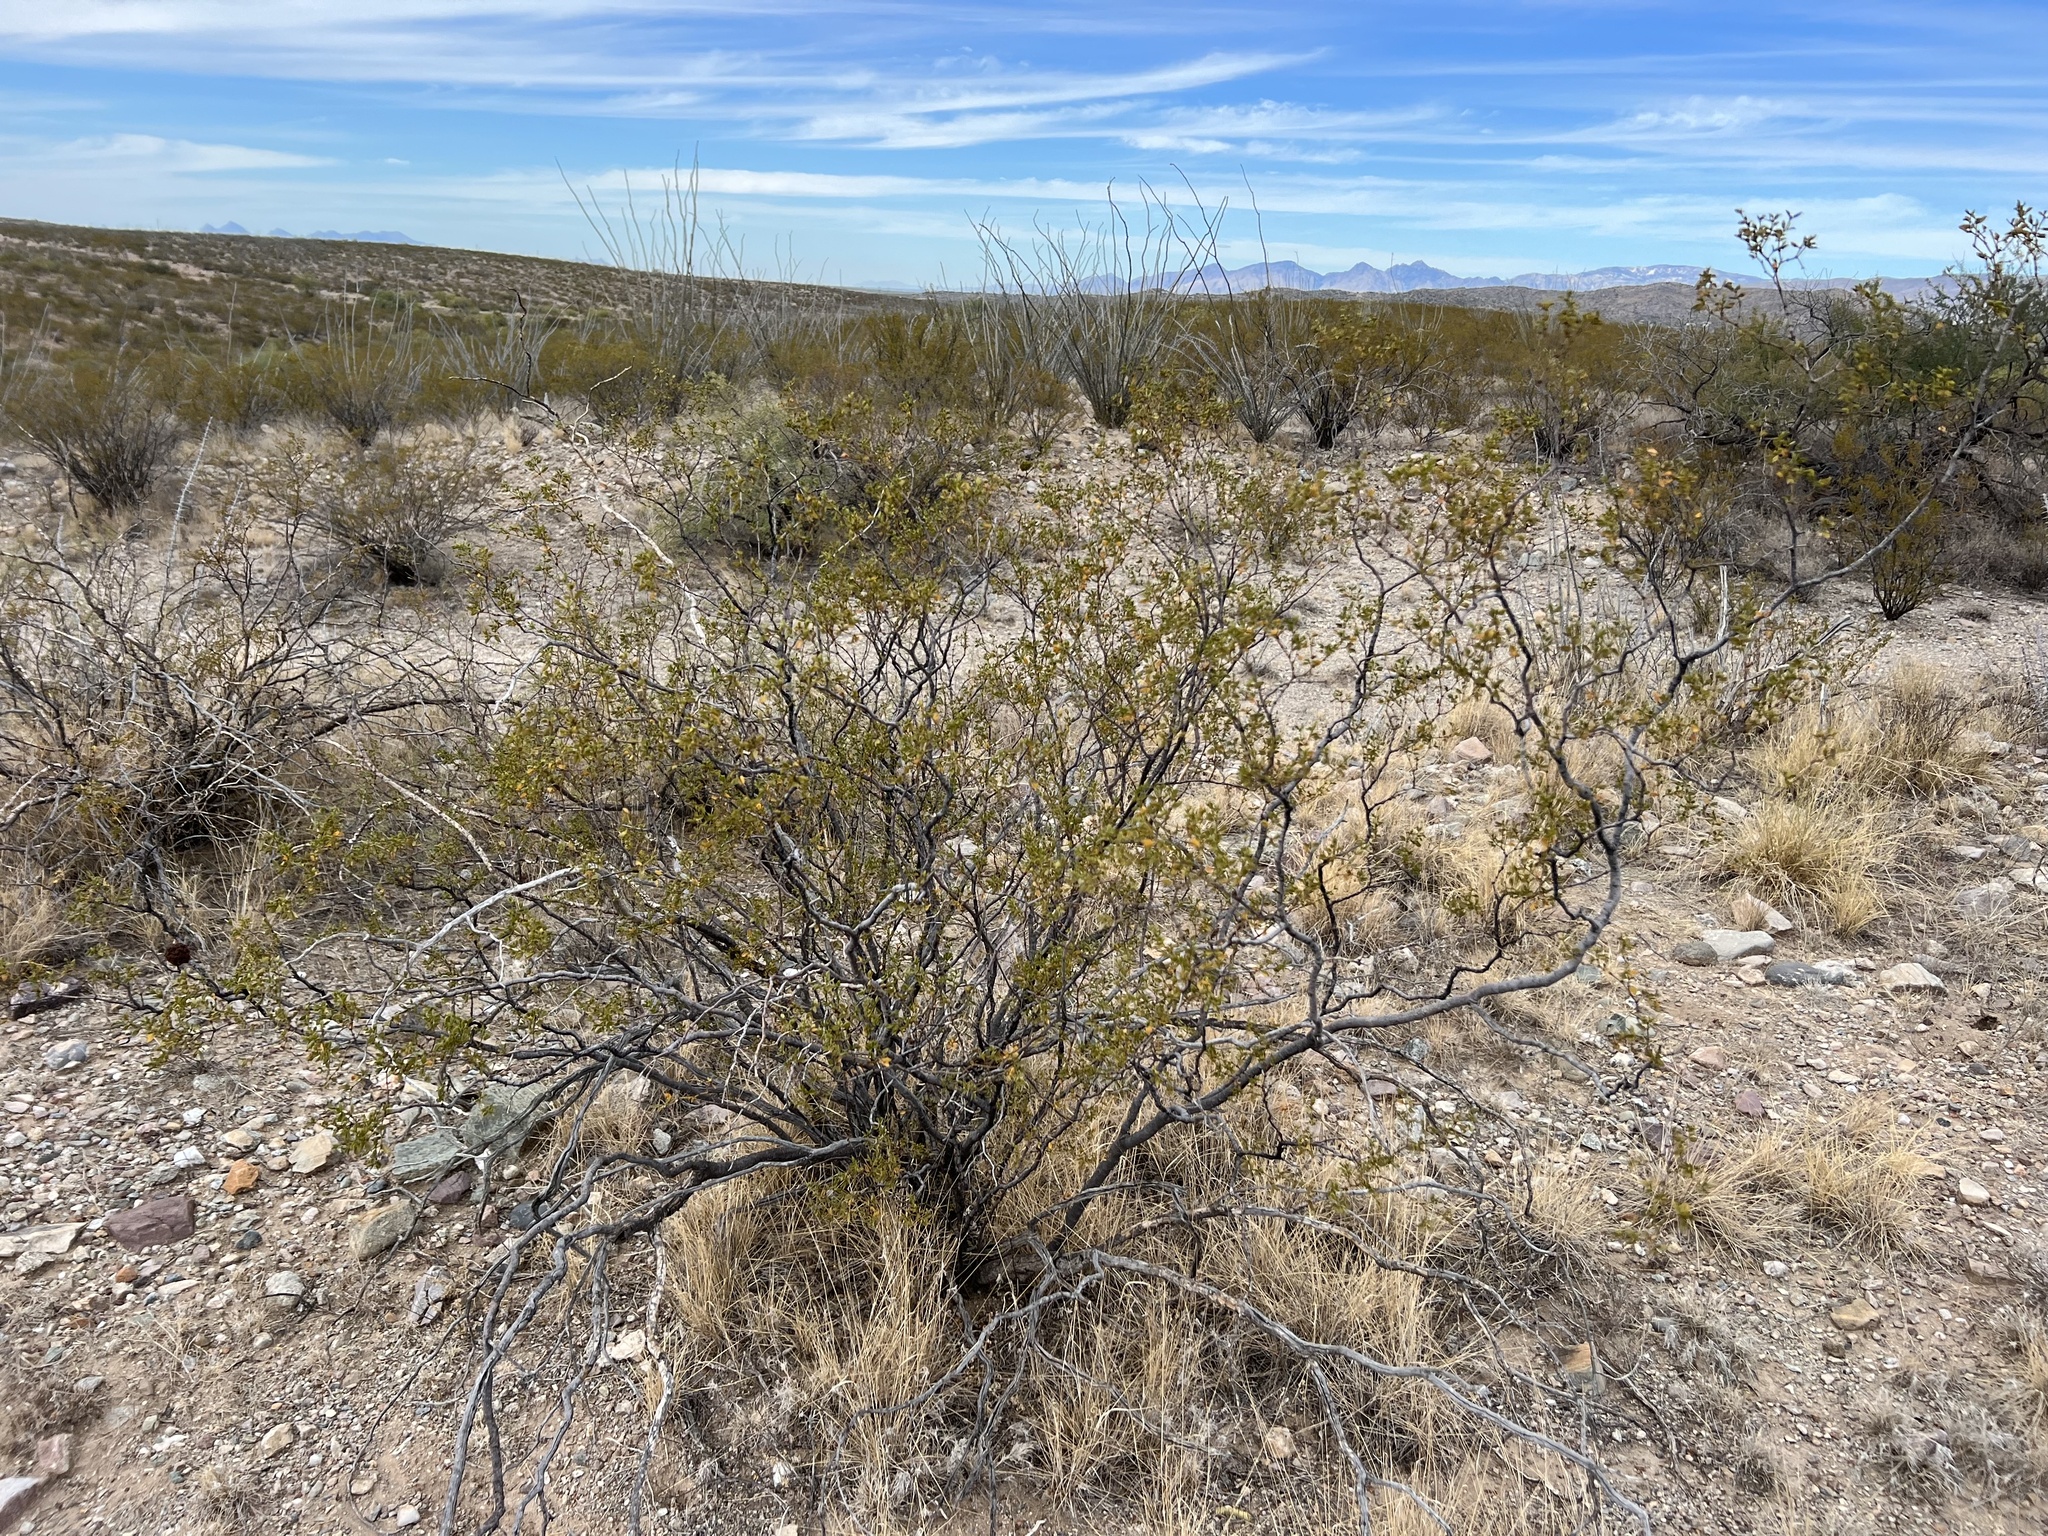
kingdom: Plantae
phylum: Tracheophyta
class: Magnoliopsida
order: Zygophyllales
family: Zygophyllaceae
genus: Larrea
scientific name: Larrea tridentata
